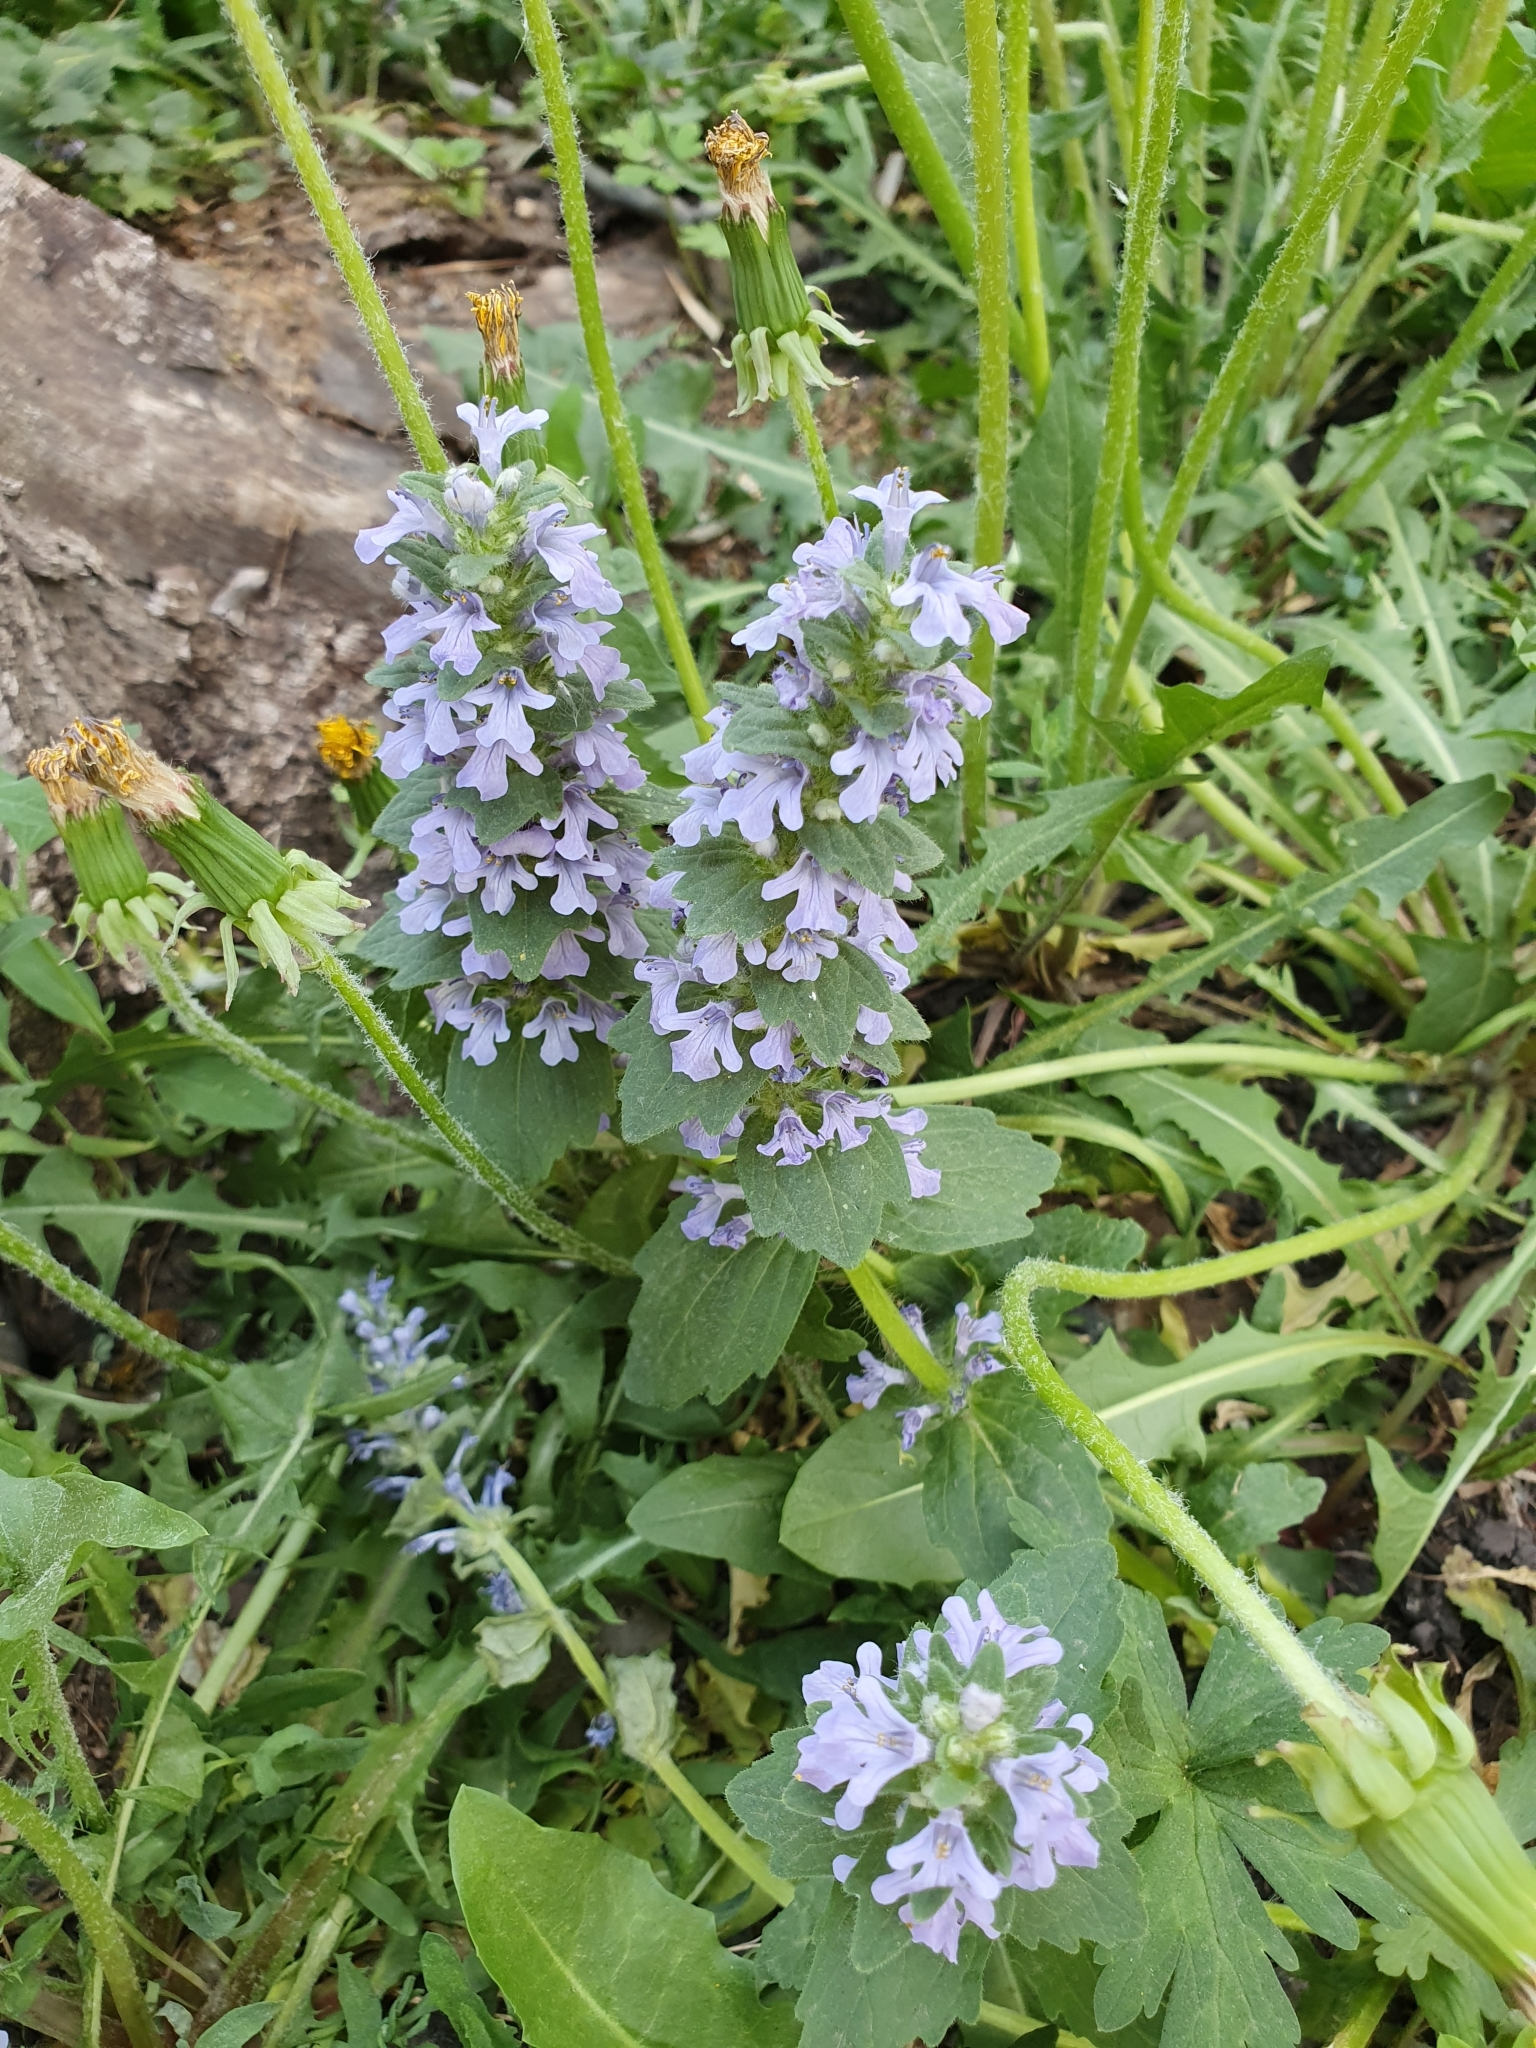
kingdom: Plantae
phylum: Tracheophyta
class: Magnoliopsida
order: Lamiales
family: Lamiaceae
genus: Ajuga
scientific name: Ajuga genevensis
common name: Blue bugle
